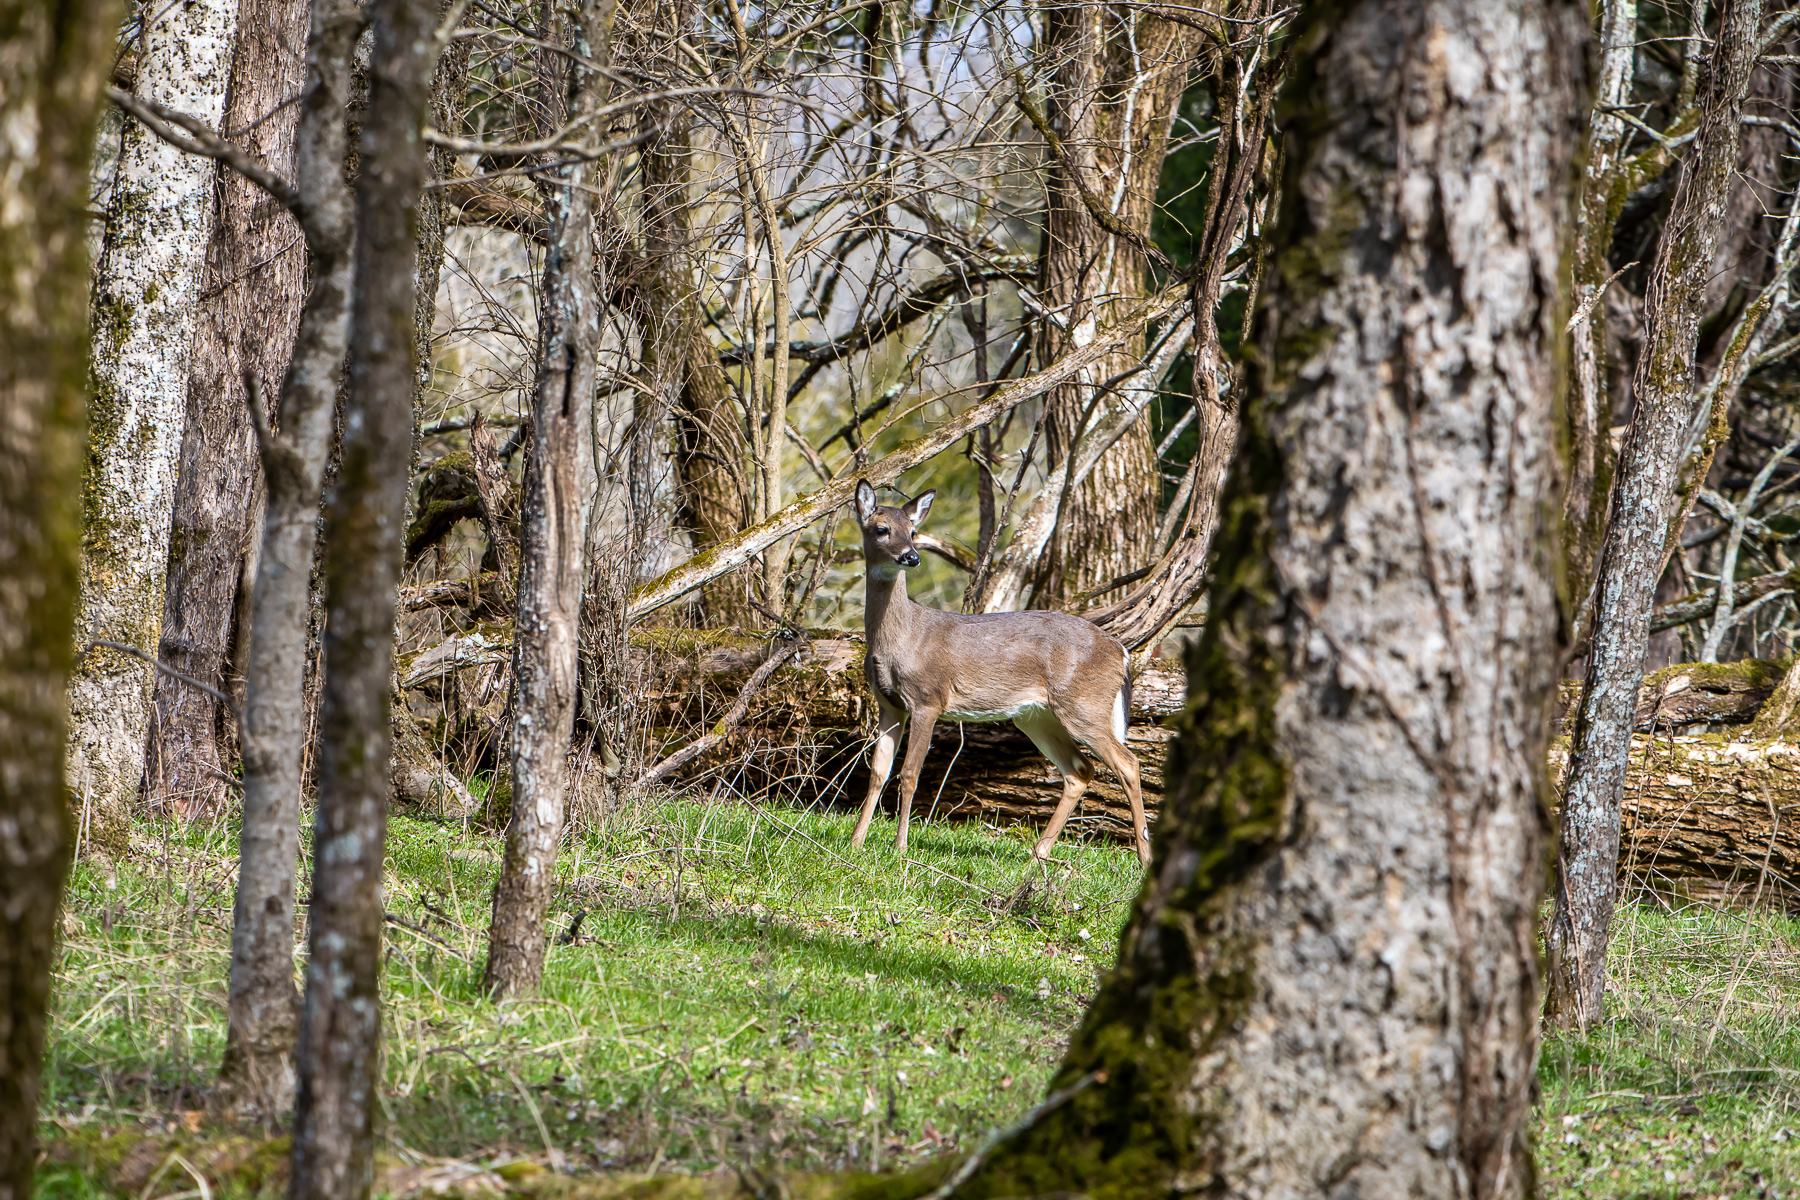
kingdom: Animalia
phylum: Chordata
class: Mammalia
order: Artiodactyla
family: Cervidae
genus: Odocoileus
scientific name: Odocoileus virginianus
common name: White-tailed deer
